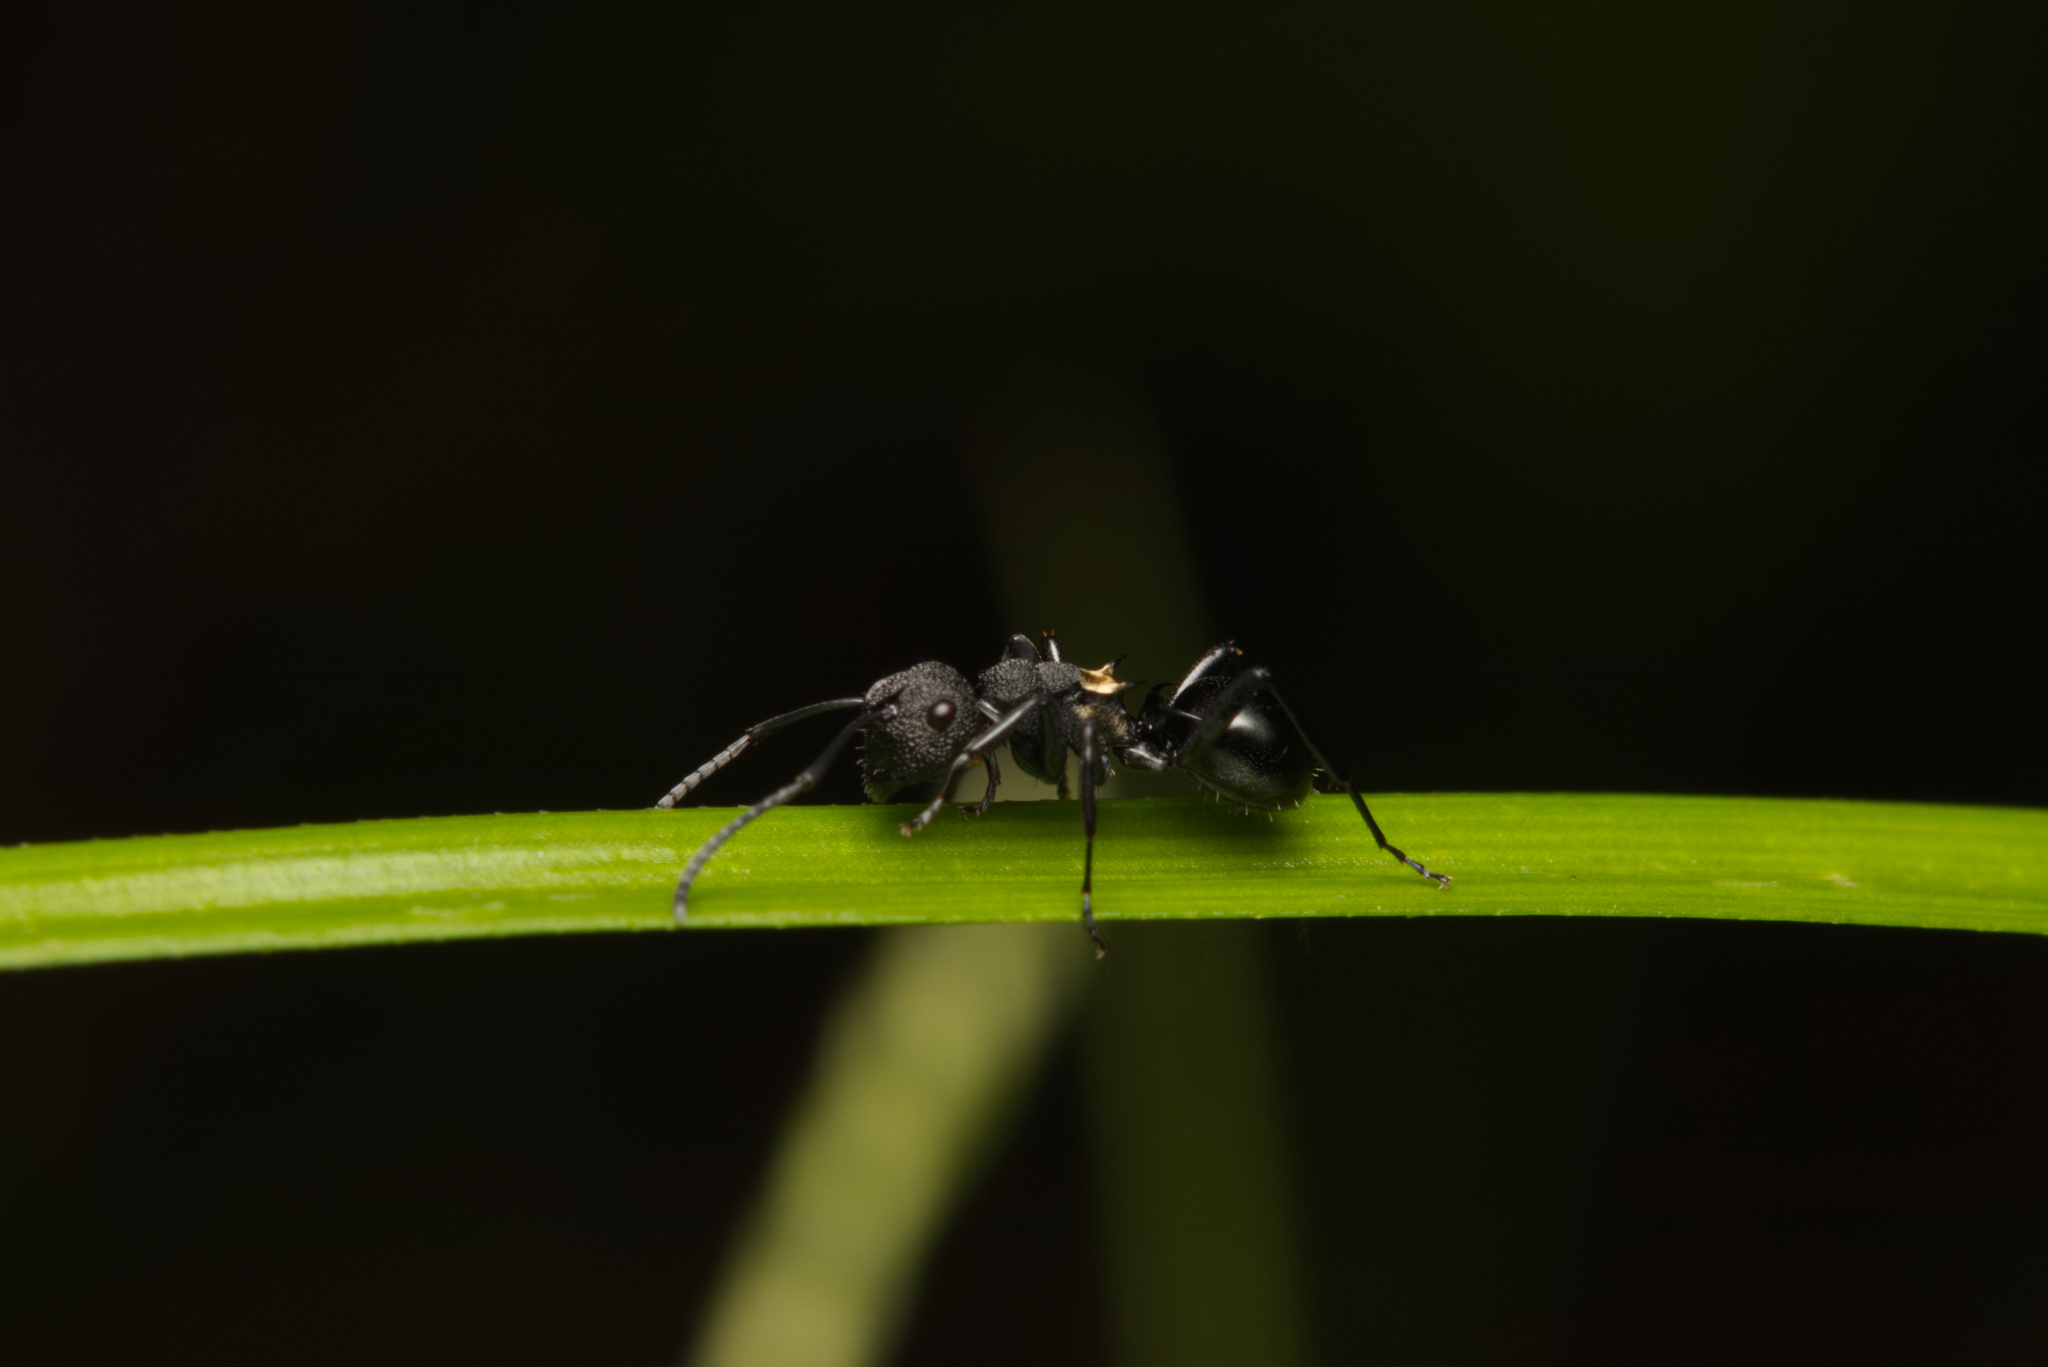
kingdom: Animalia
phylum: Arthropoda
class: Insecta
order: Hymenoptera
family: Formicidae
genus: Polyrhachis
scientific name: Polyrhachis machaon
